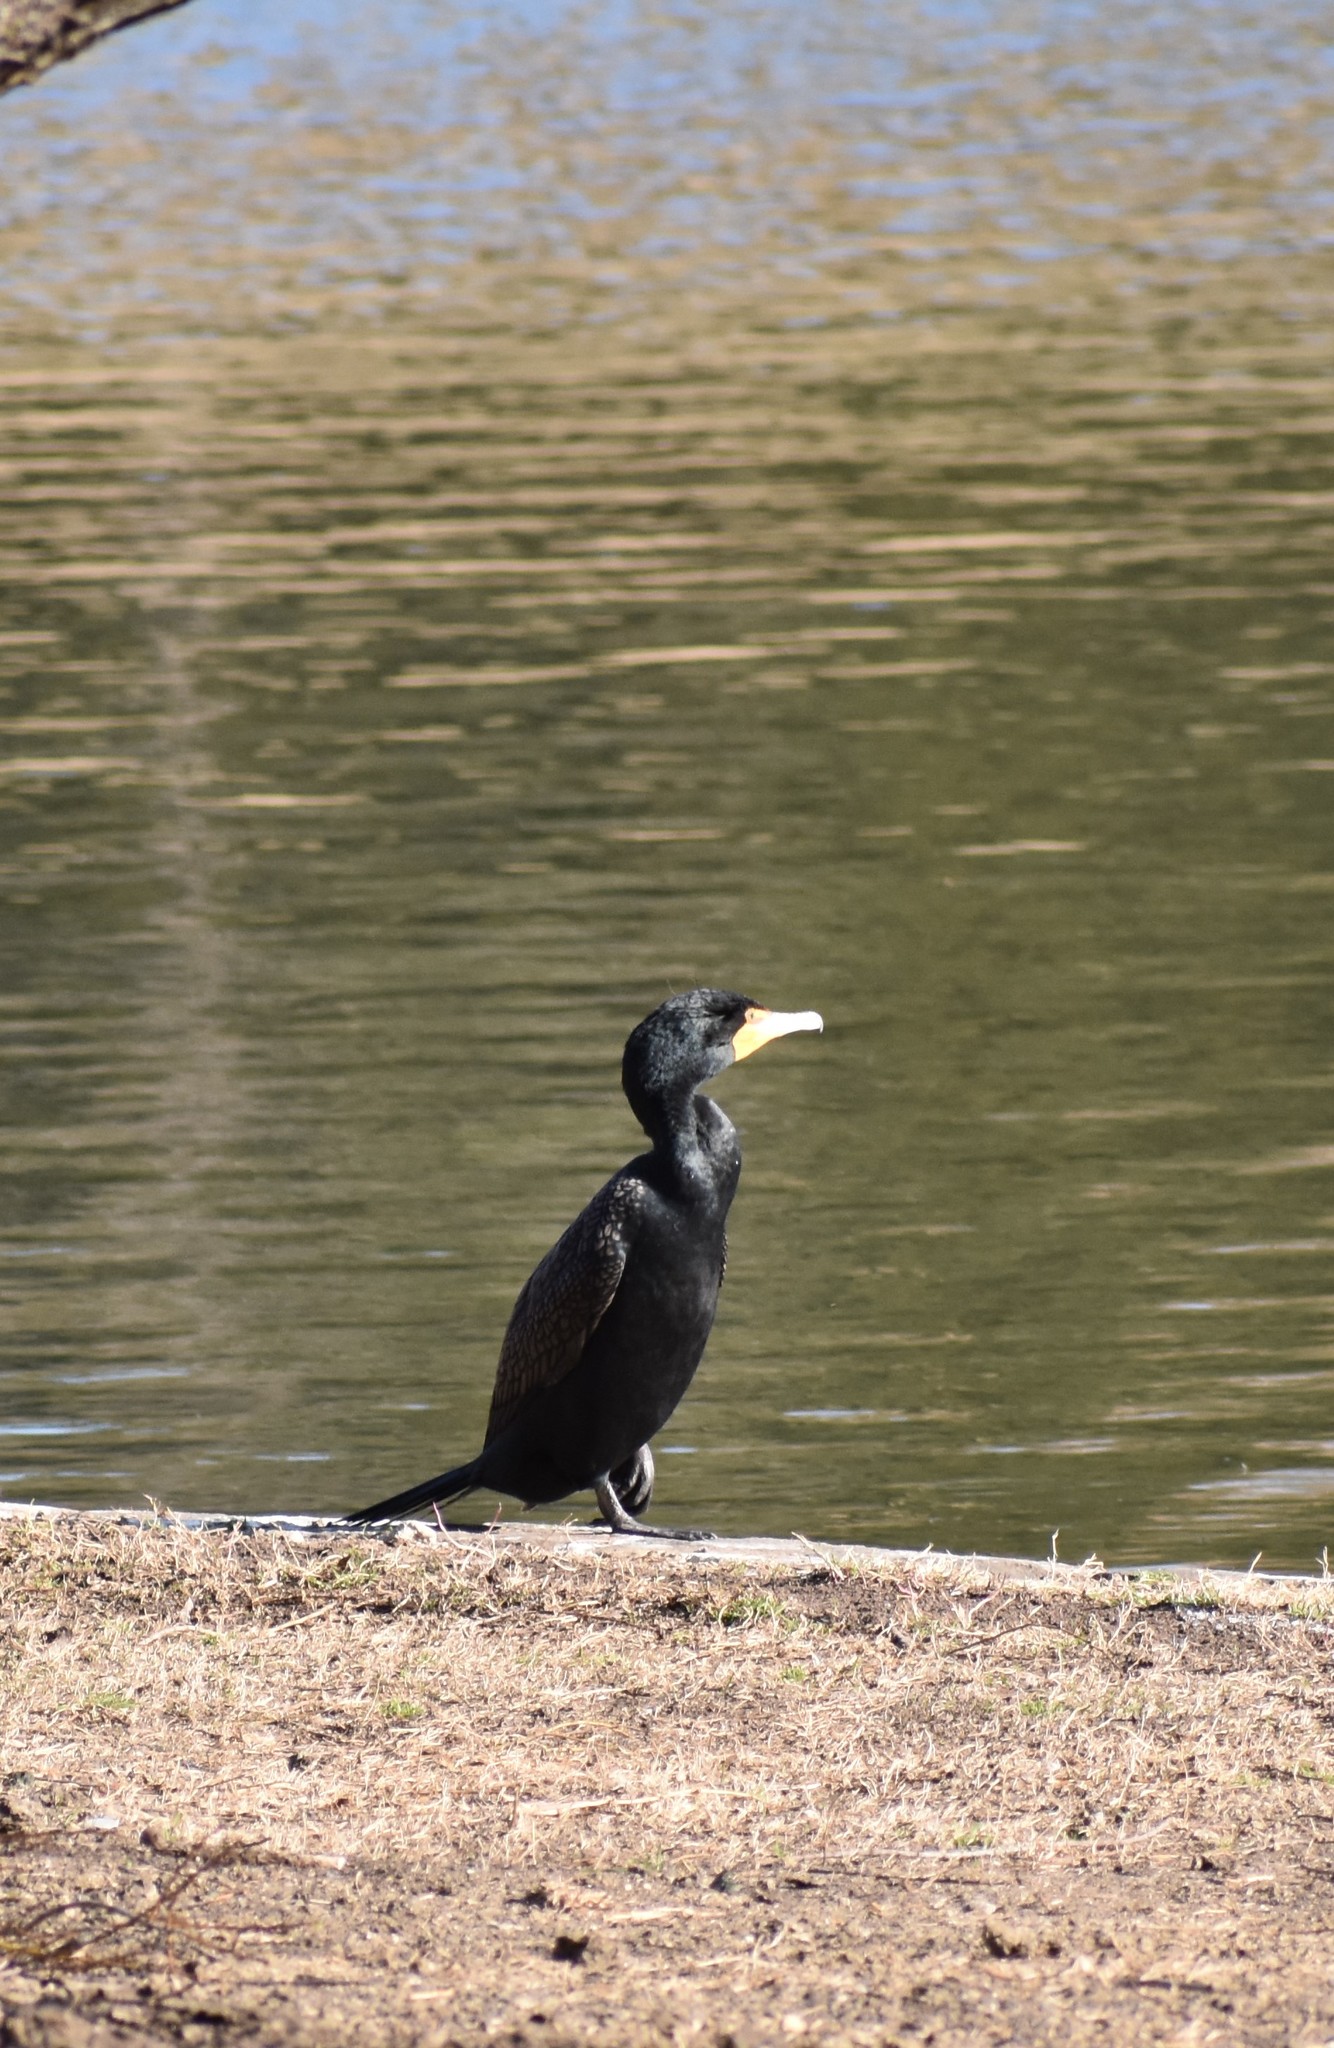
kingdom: Animalia
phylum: Chordata
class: Aves
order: Suliformes
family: Phalacrocoracidae
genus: Phalacrocorax
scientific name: Phalacrocorax auritus
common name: Double-crested cormorant
